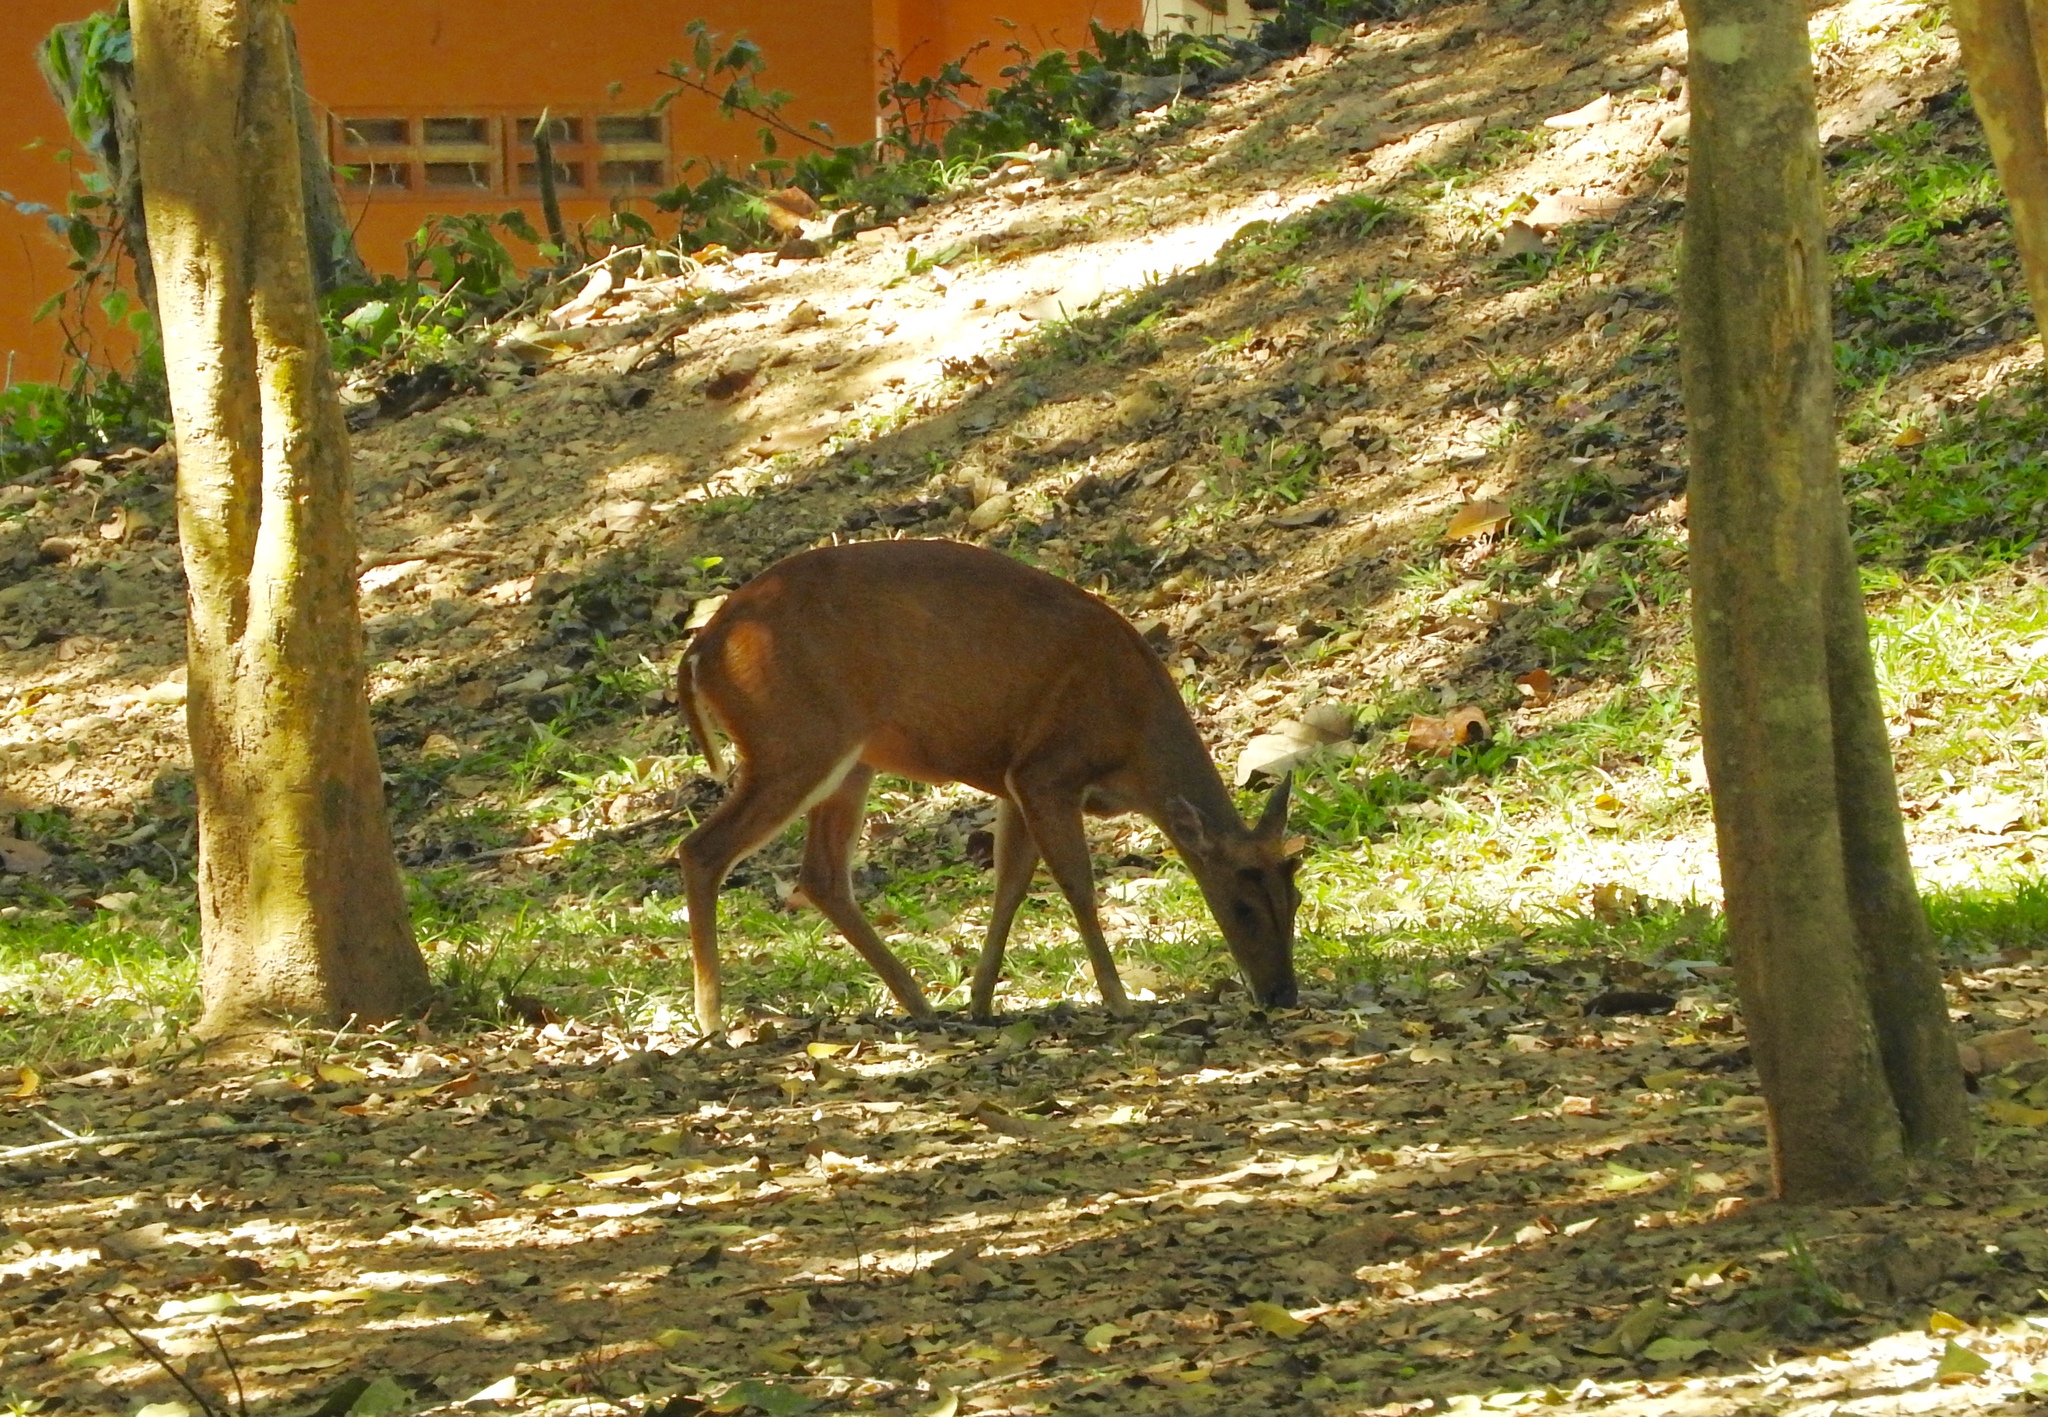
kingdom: Animalia
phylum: Chordata
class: Mammalia
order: Artiodactyla
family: Cervidae
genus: Muntiacus
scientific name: Muntiacus muntjak
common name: Indian muntjac
